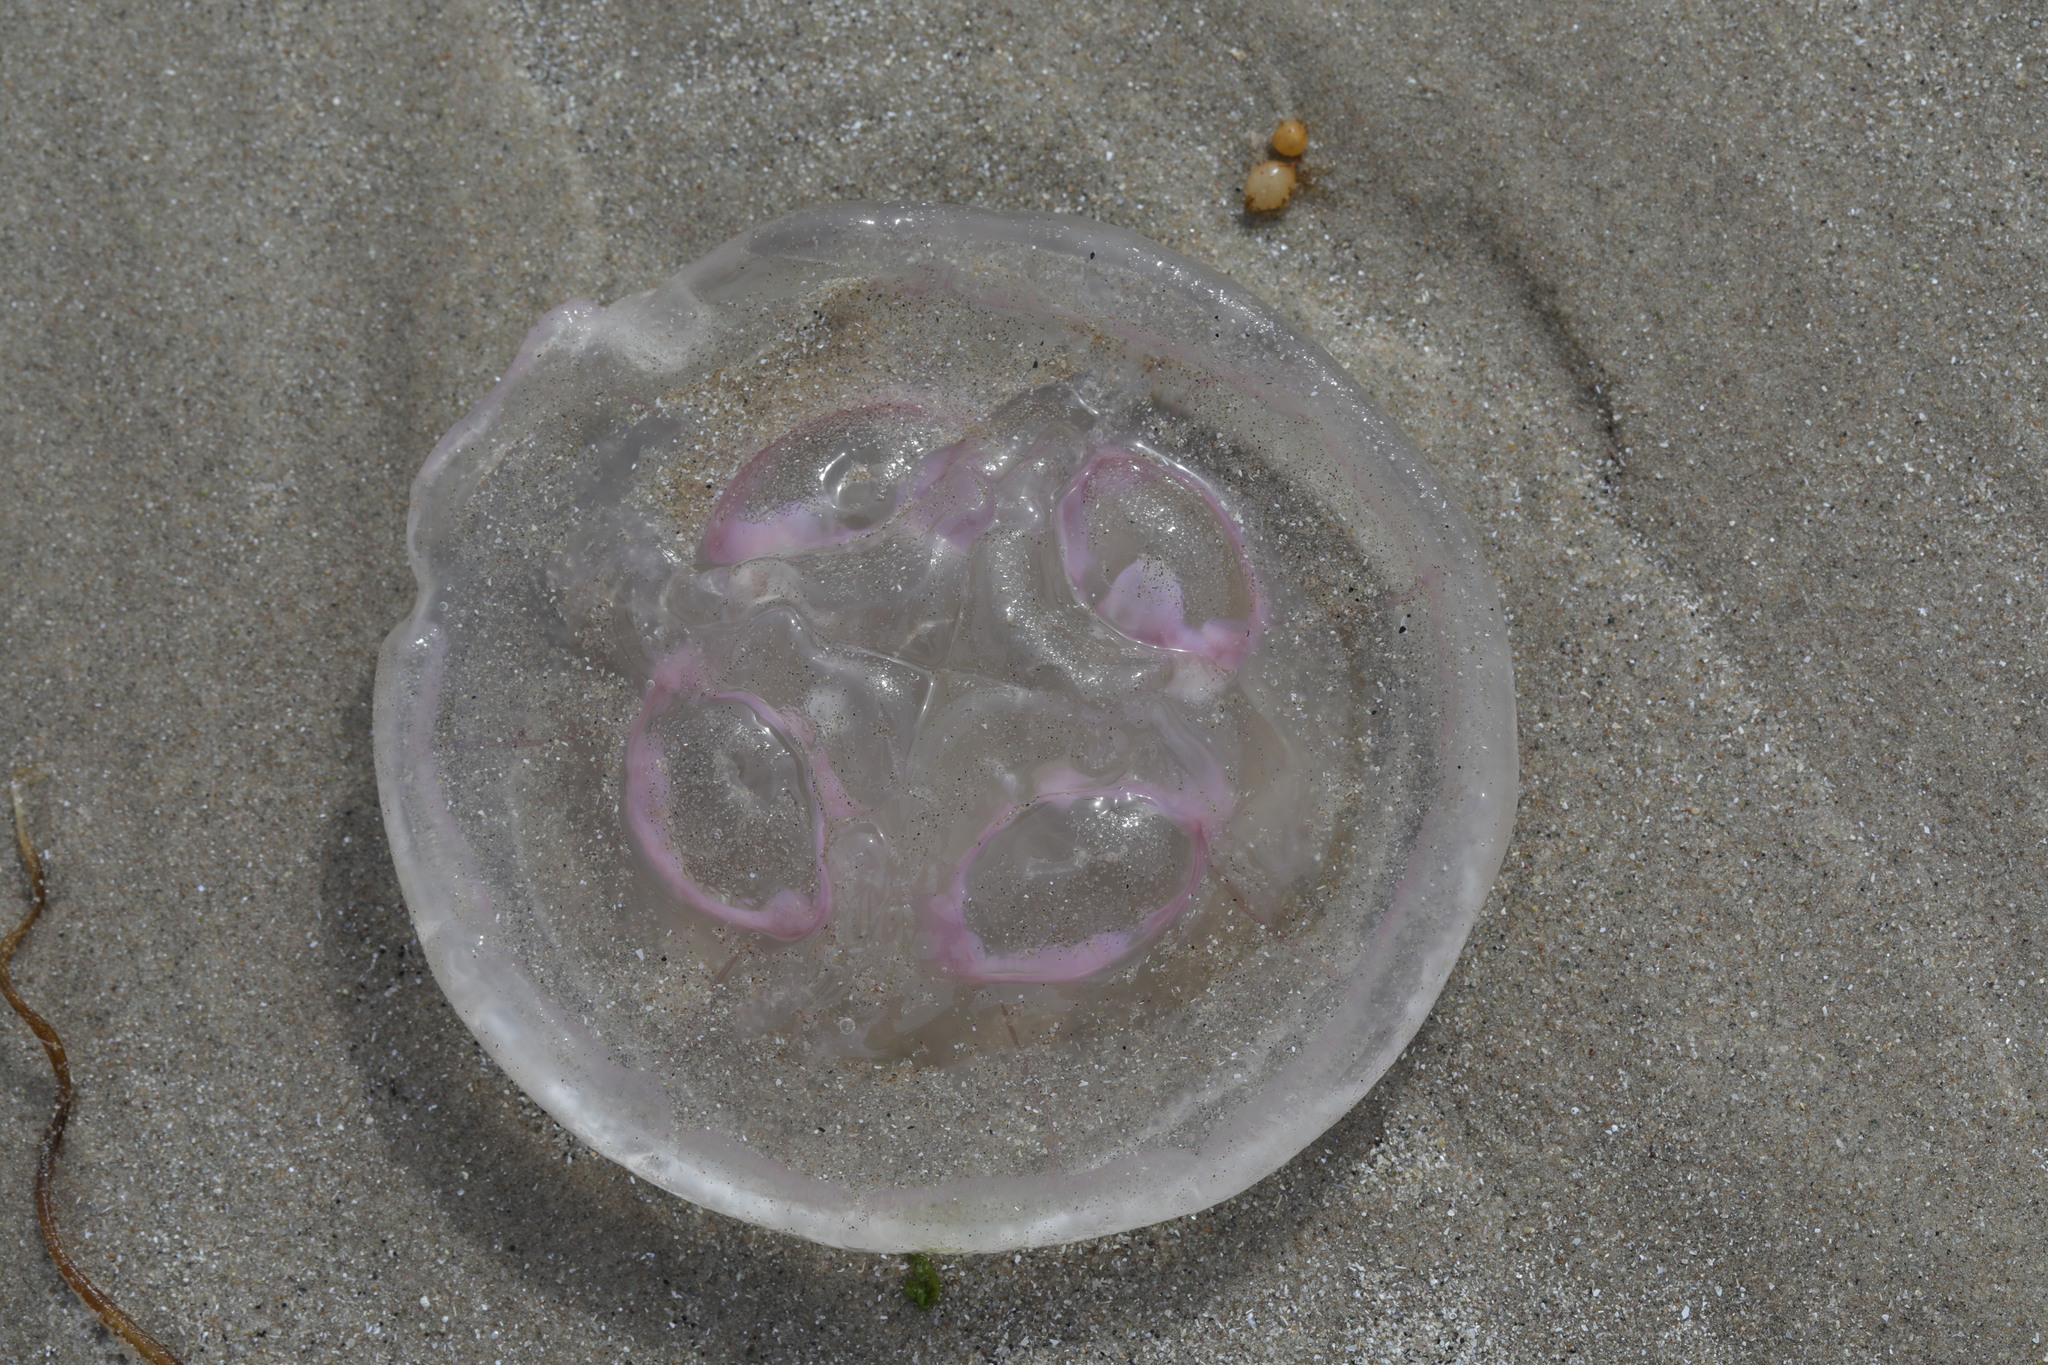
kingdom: Animalia
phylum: Cnidaria
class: Scyphozoa
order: Semaeostomeae
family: Ulmaridae
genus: Aurelia
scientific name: Aurelia aurita
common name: Moon jellyfish
